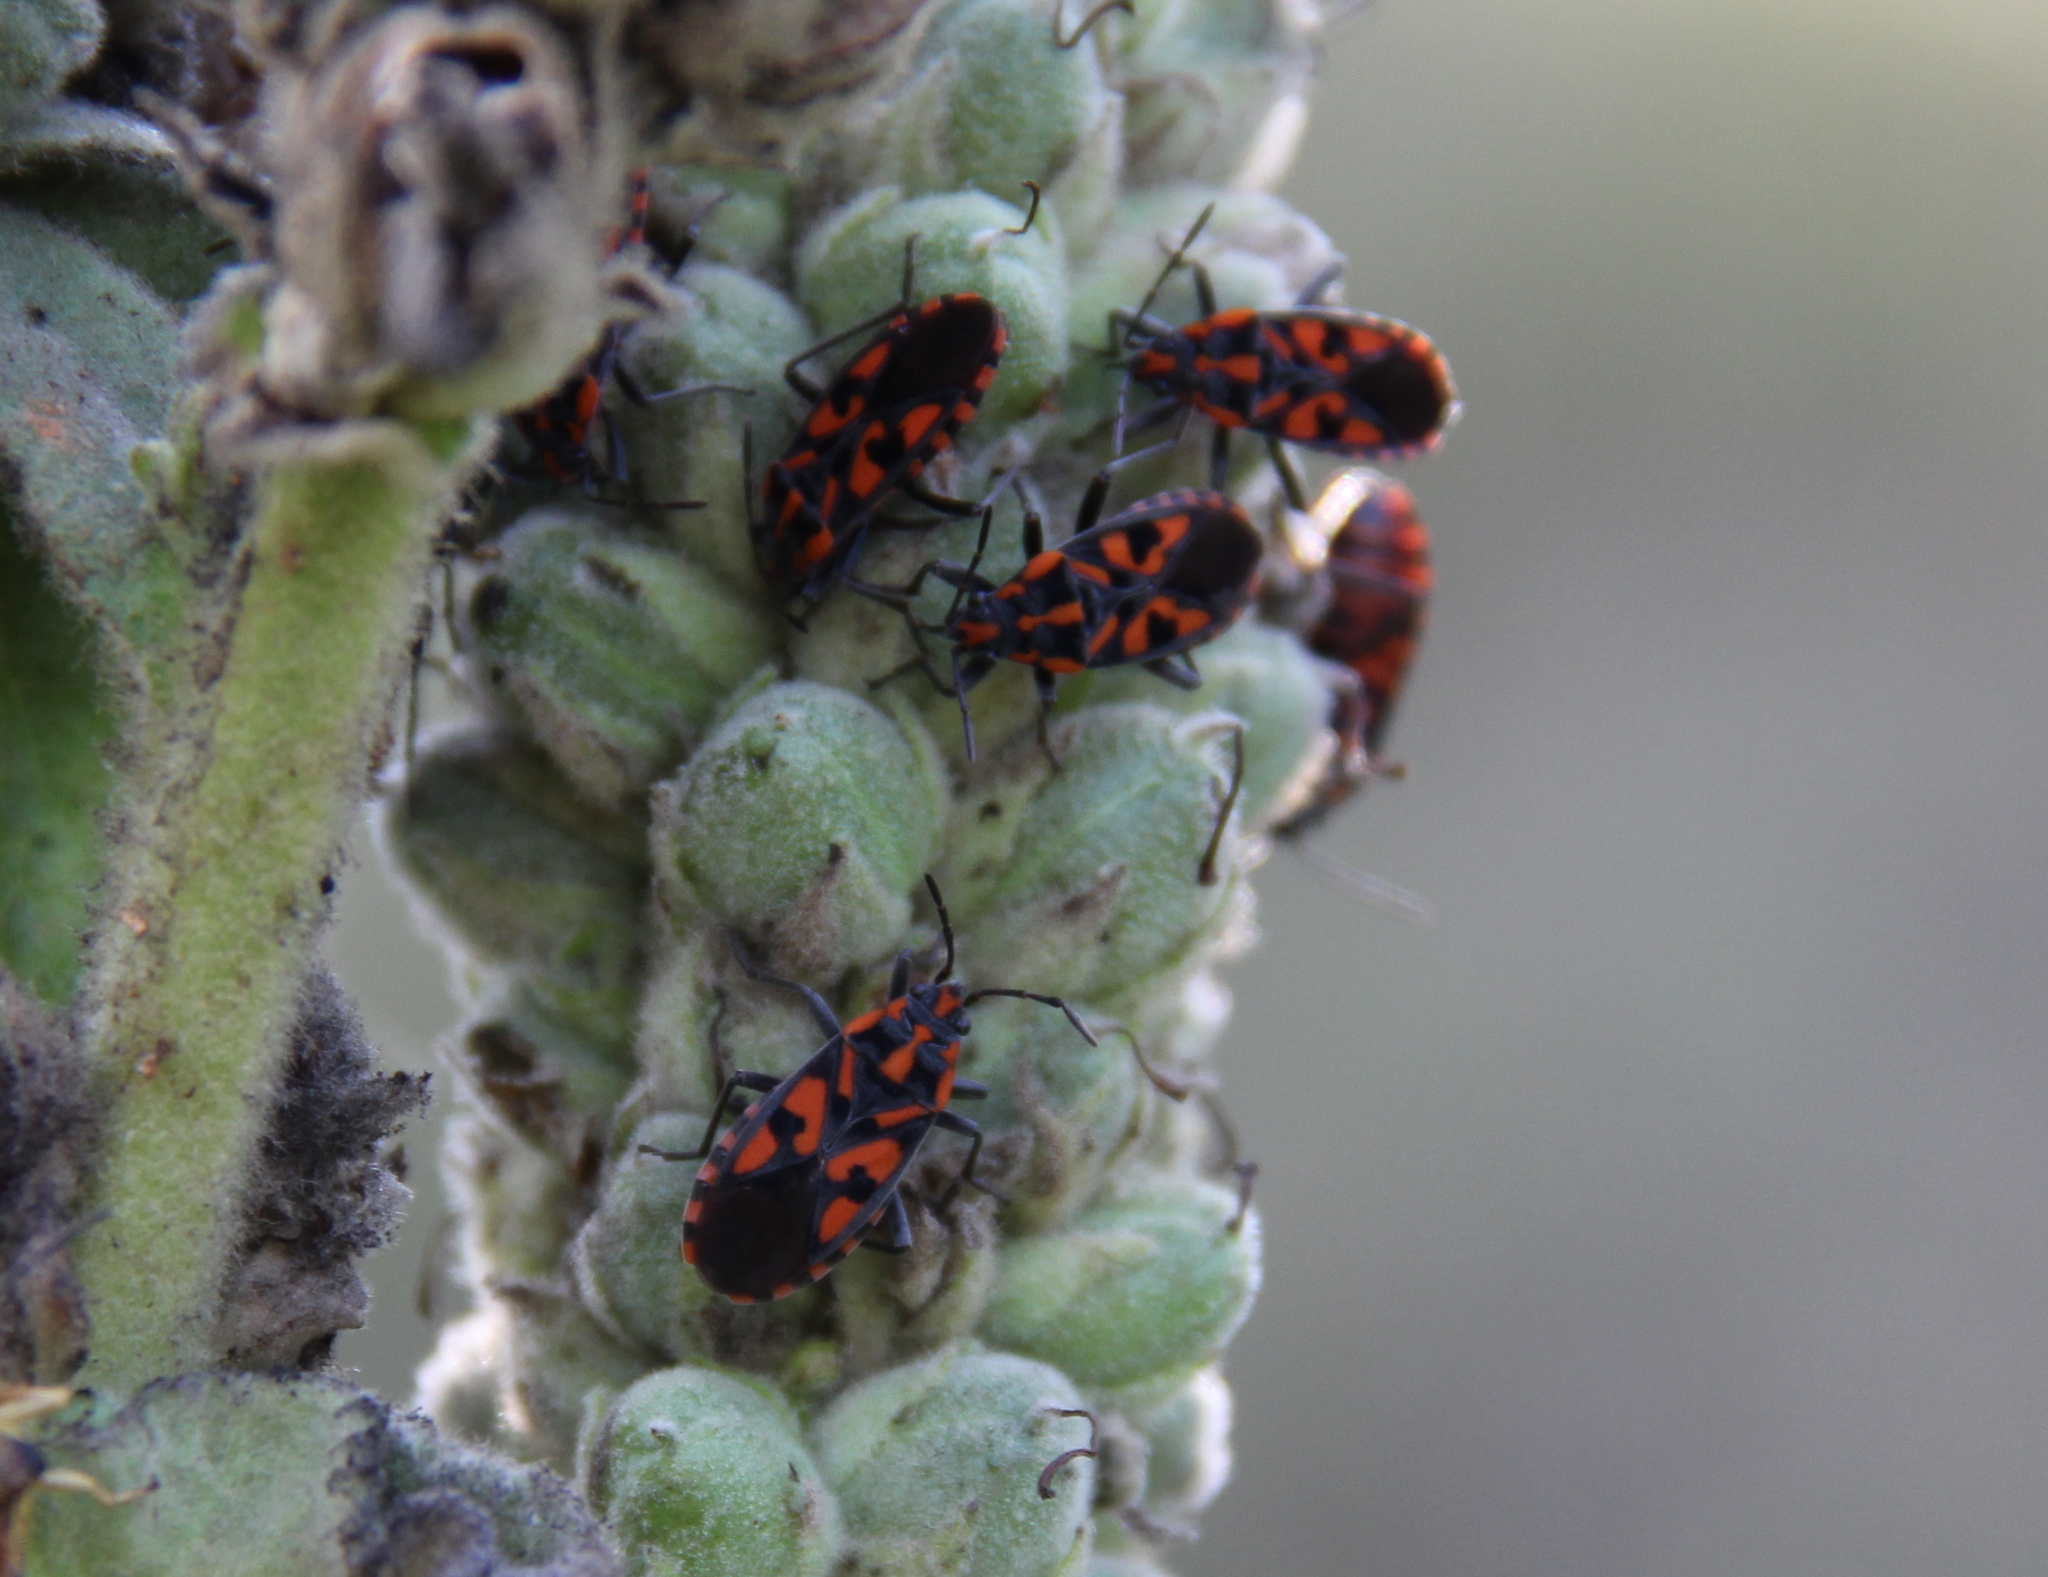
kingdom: Animalia
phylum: Arthropoda
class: Insecta
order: Hemiptera
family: Lygaeidae
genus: Spilostethus
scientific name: Spilostethus saxatilis
